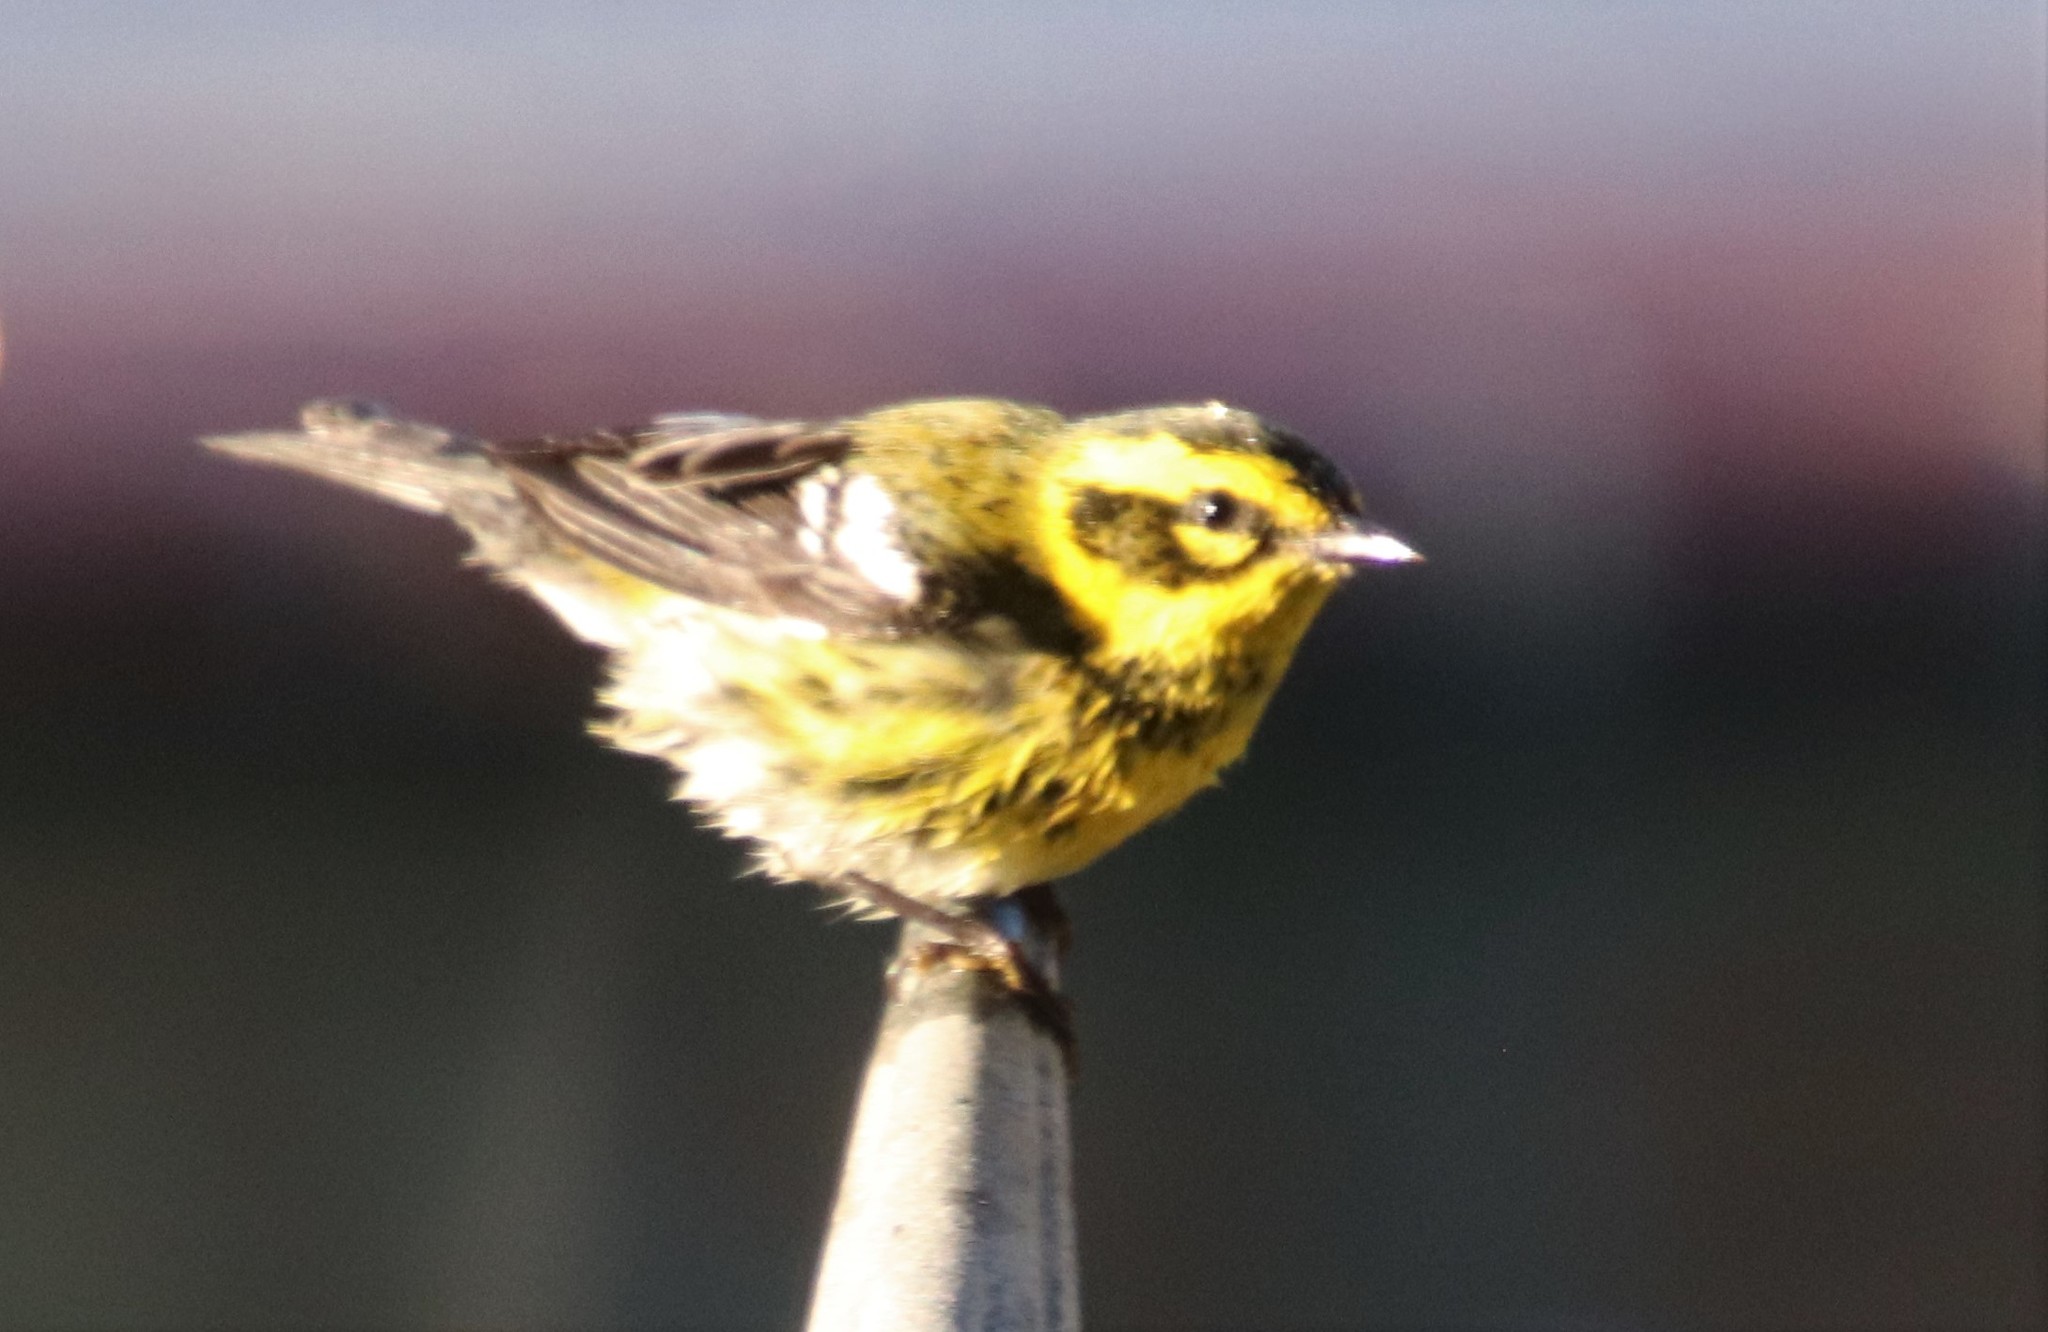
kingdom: Animalia
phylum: Chordata
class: Aves
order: Passeriformes
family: Parulidae
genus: Setophaga
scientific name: Setophaga townsendi
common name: Townsend's warbler
